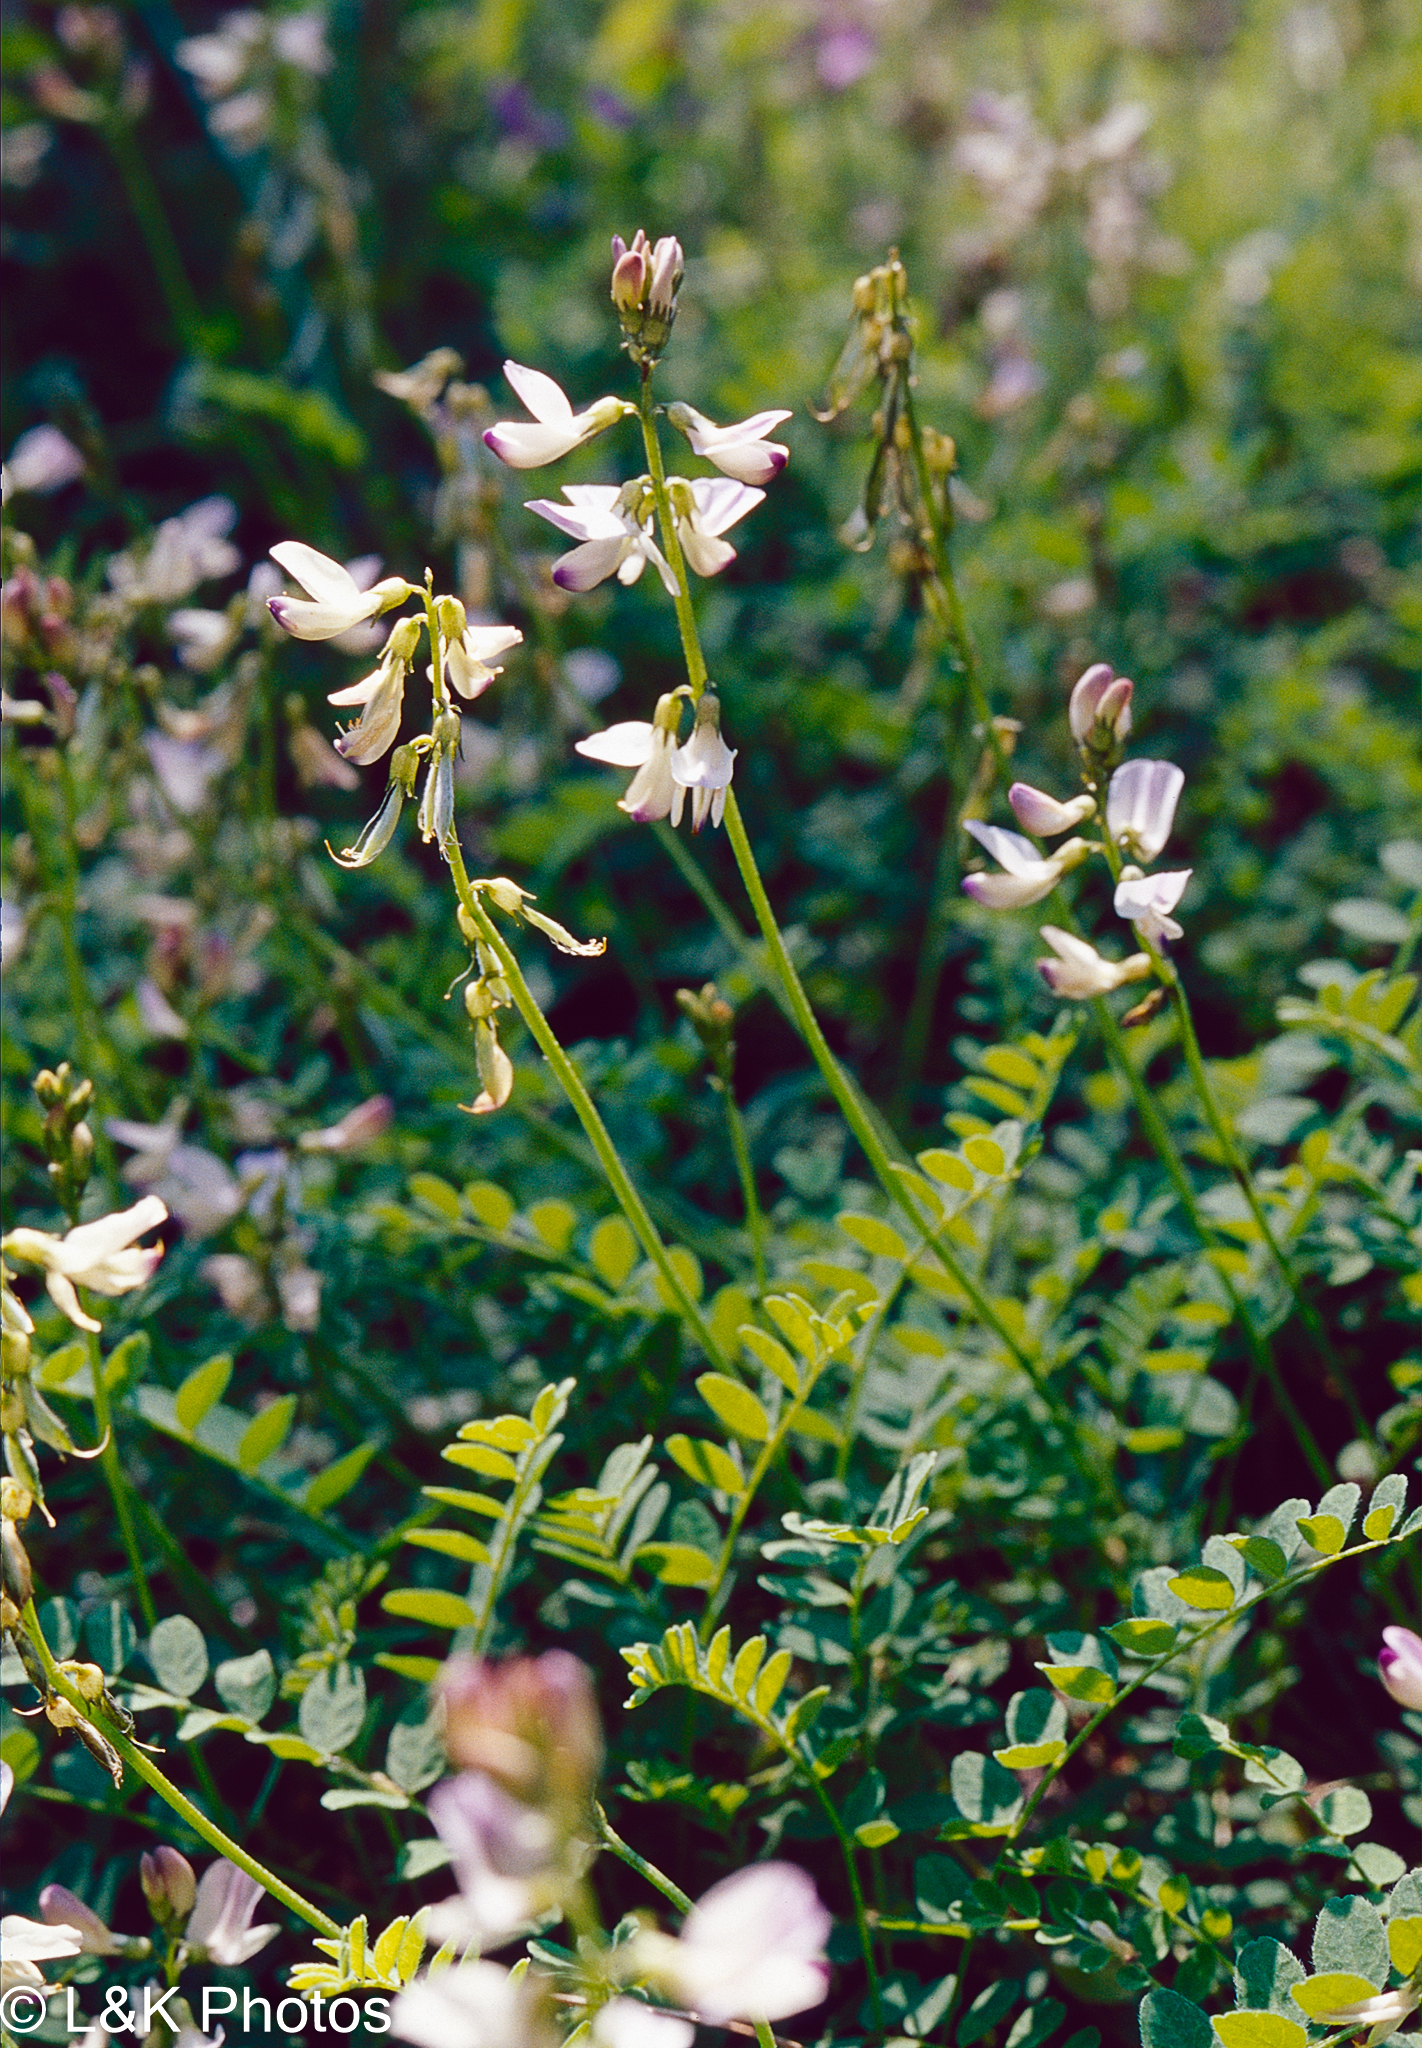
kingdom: Plantae
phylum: Tracheophyta
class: Magnoliopsida
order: Fabales
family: Fabaceae
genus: Astragalus
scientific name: Astragalus alpinus
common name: Alpine milk-vetch
